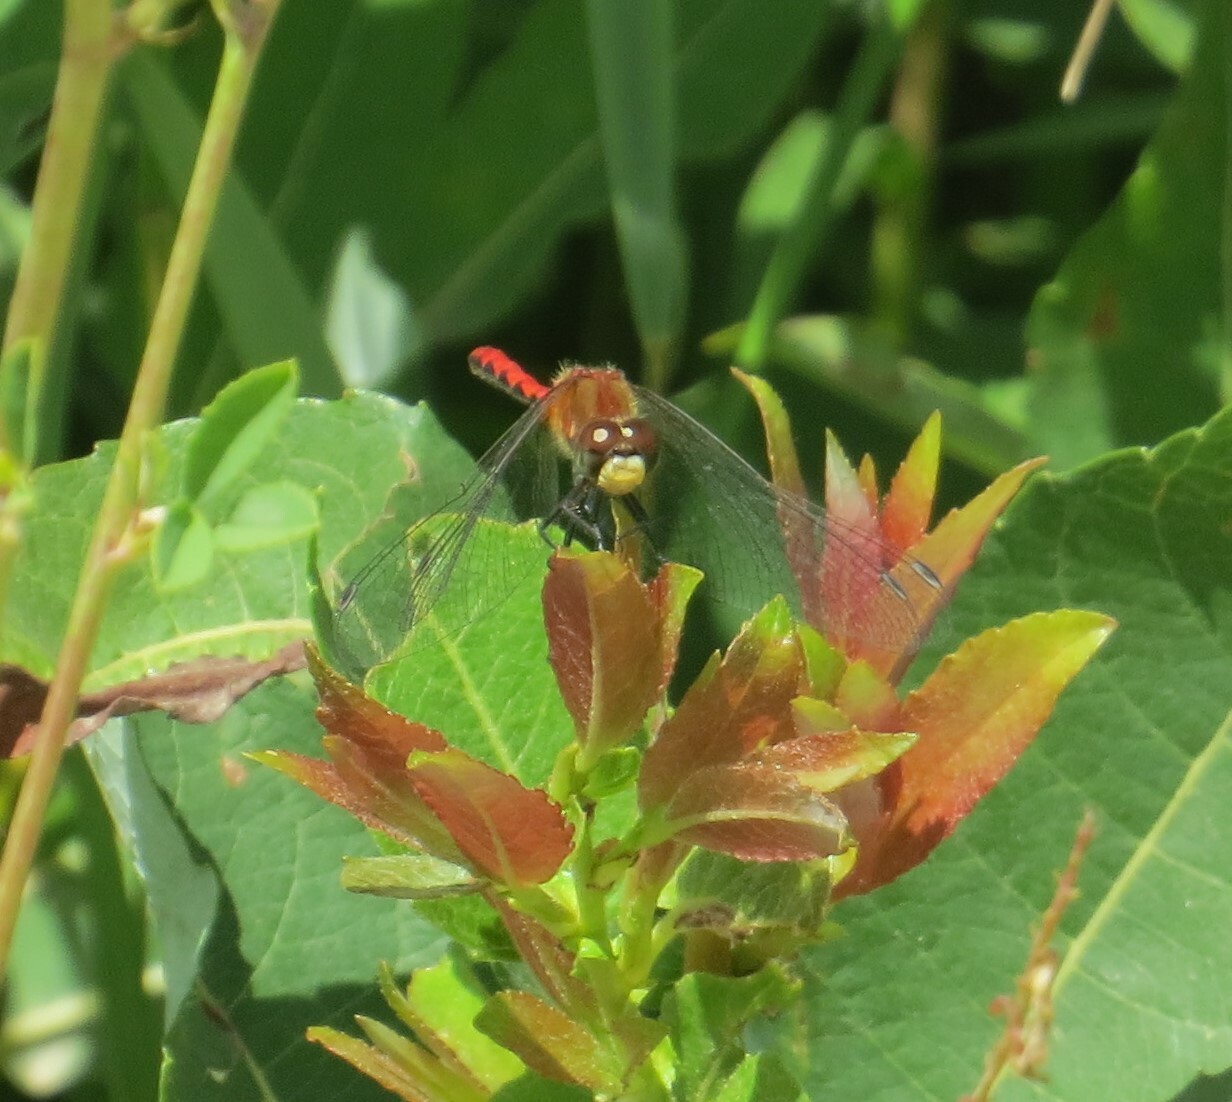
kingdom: Animalia
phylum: Arthropoda
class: Insecta
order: Odonata
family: Libellulidae
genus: Sympetrum
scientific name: Sympetrum obtrusum
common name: White-faced meadowhawk
